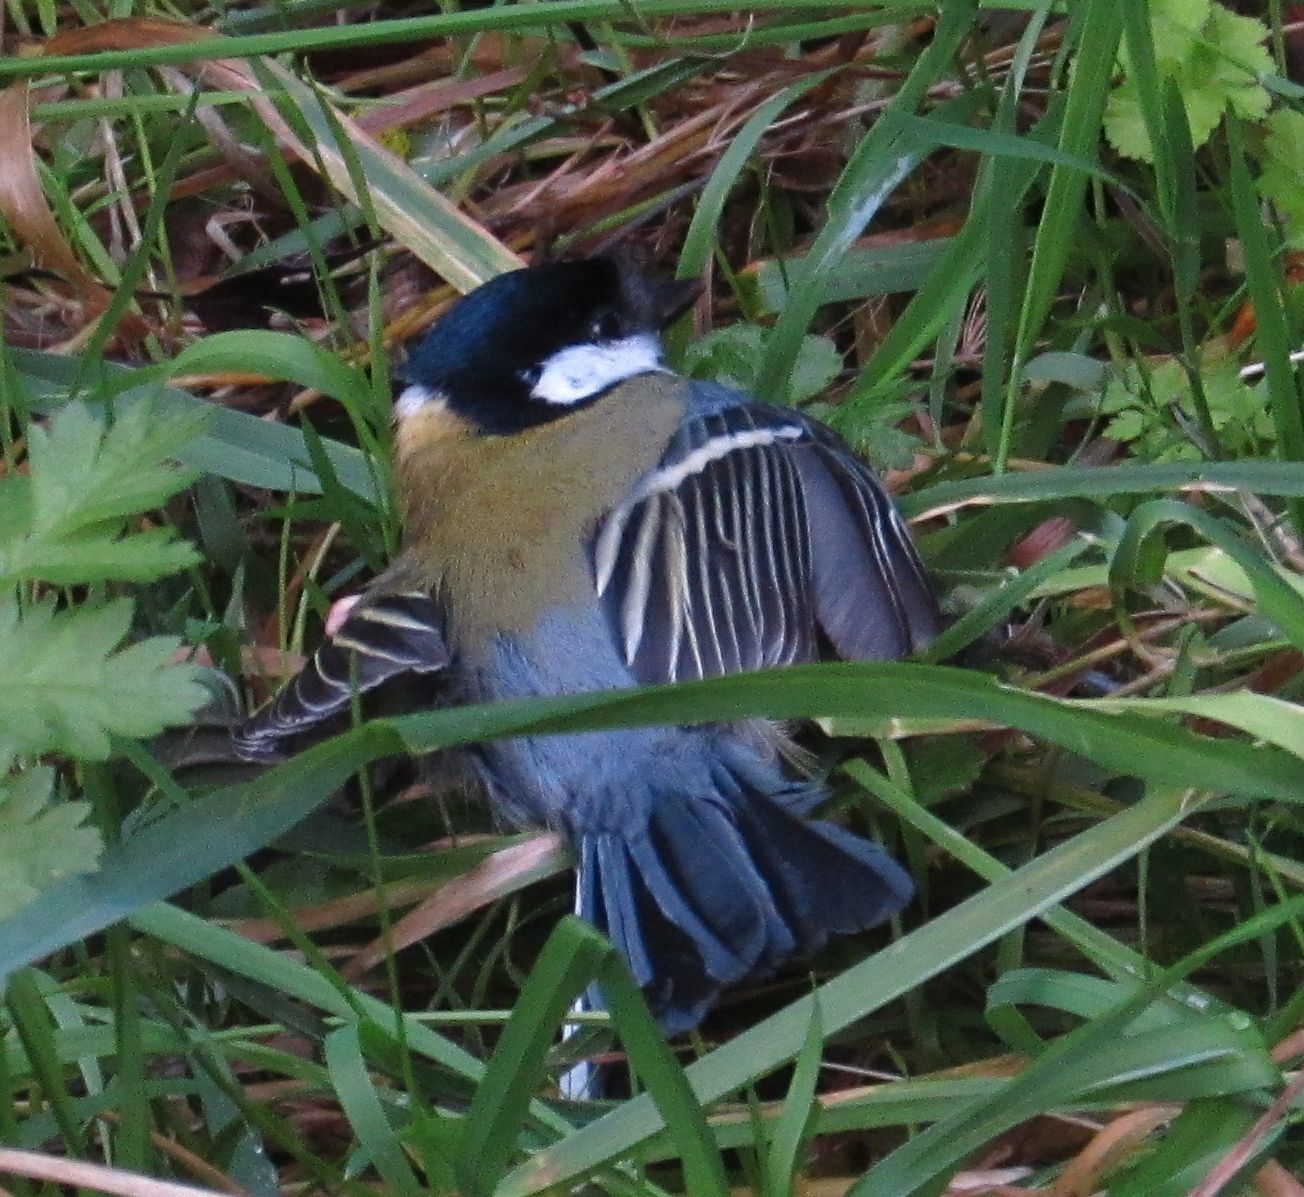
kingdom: Animalia
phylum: Chordata
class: Aves
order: Passeriformes
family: Paridae
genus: Parus
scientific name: Parus major
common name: Great tit
